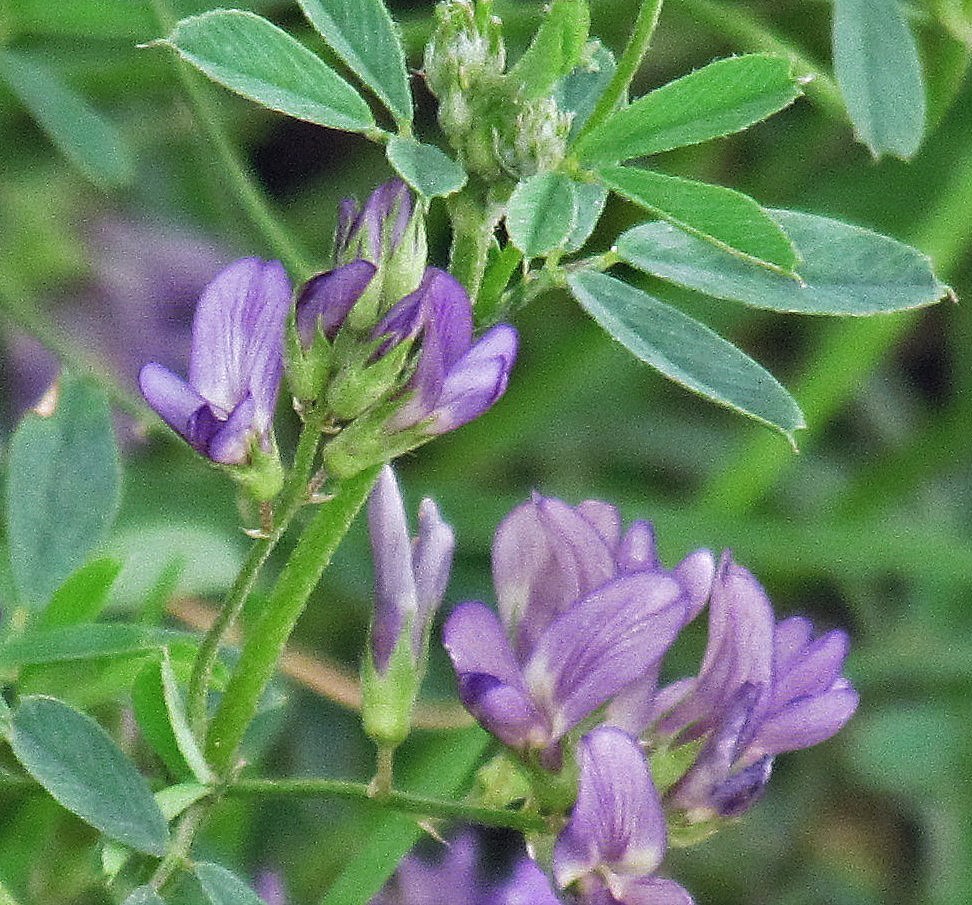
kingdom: Plantae
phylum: Tracheophyta
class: Magnoliopsida
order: Fabales
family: Fabaceae
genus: Medicago
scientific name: Medicago sativa
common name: Alfalfa
